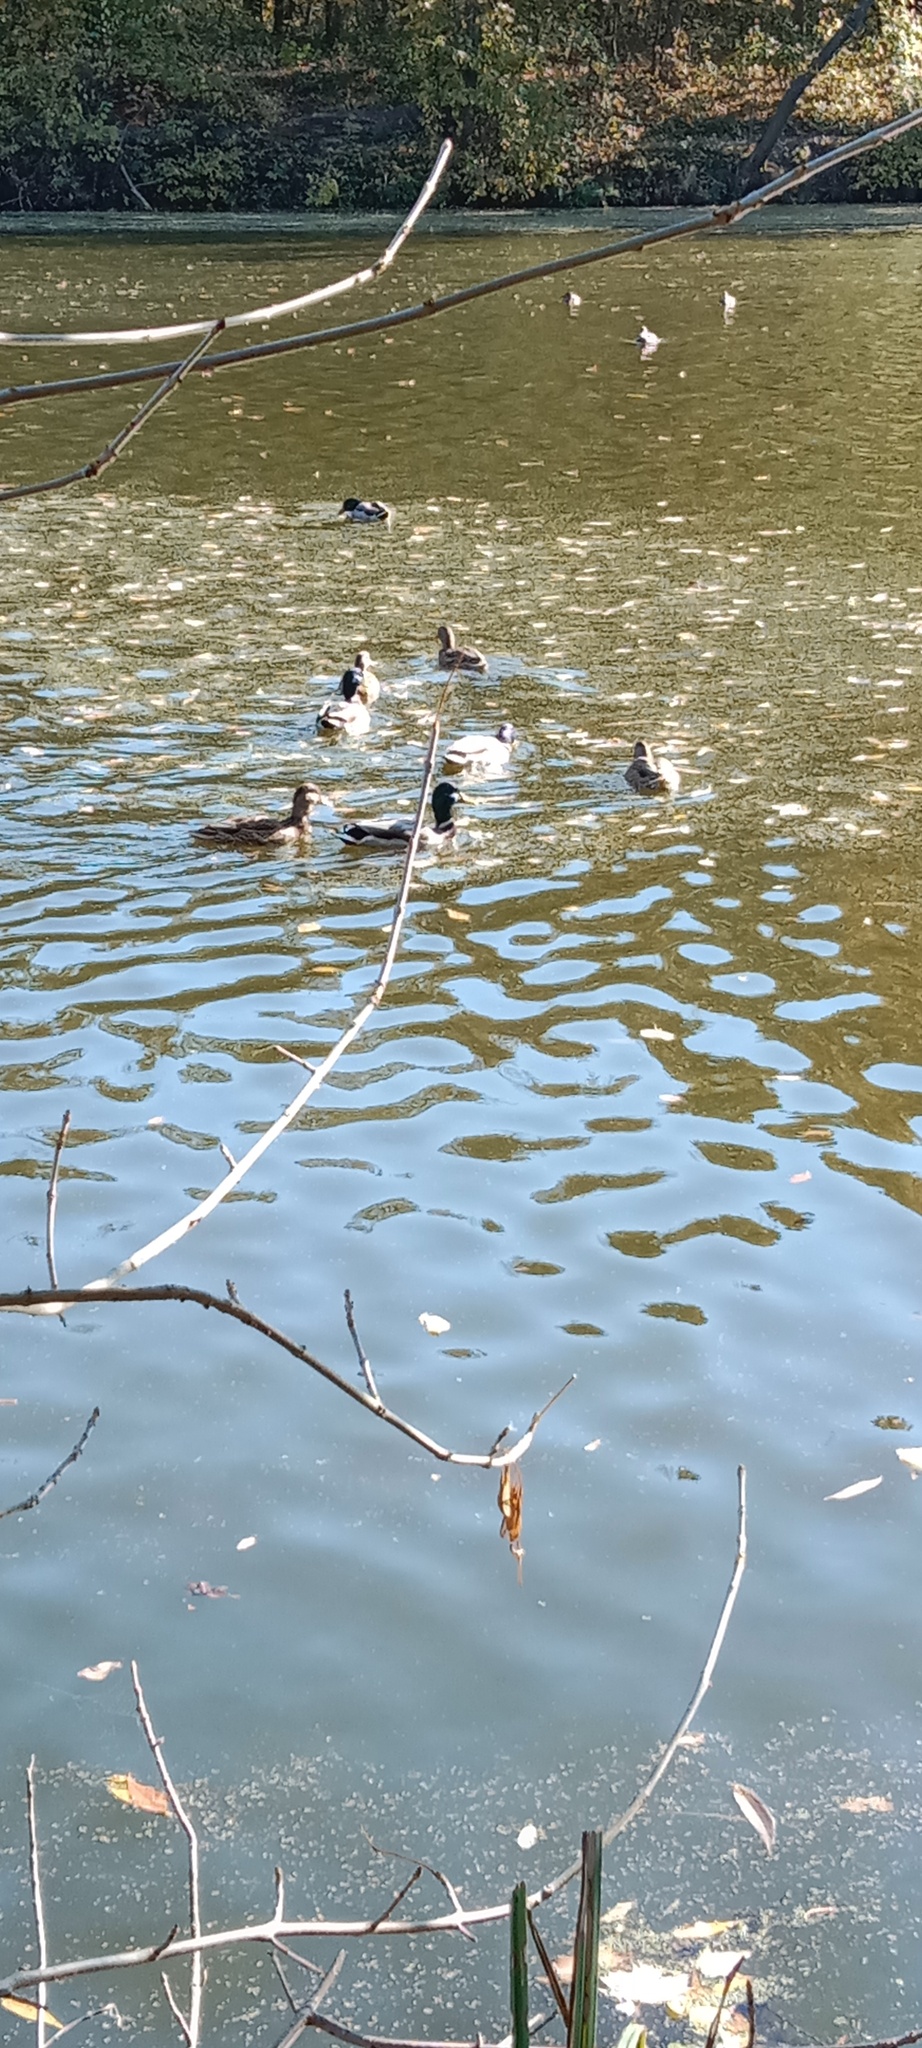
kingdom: Animalia
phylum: Chordata
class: Aves
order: Anseriformes
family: Anatidae
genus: Anas
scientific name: Anas platyrhynchos
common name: Mallard
